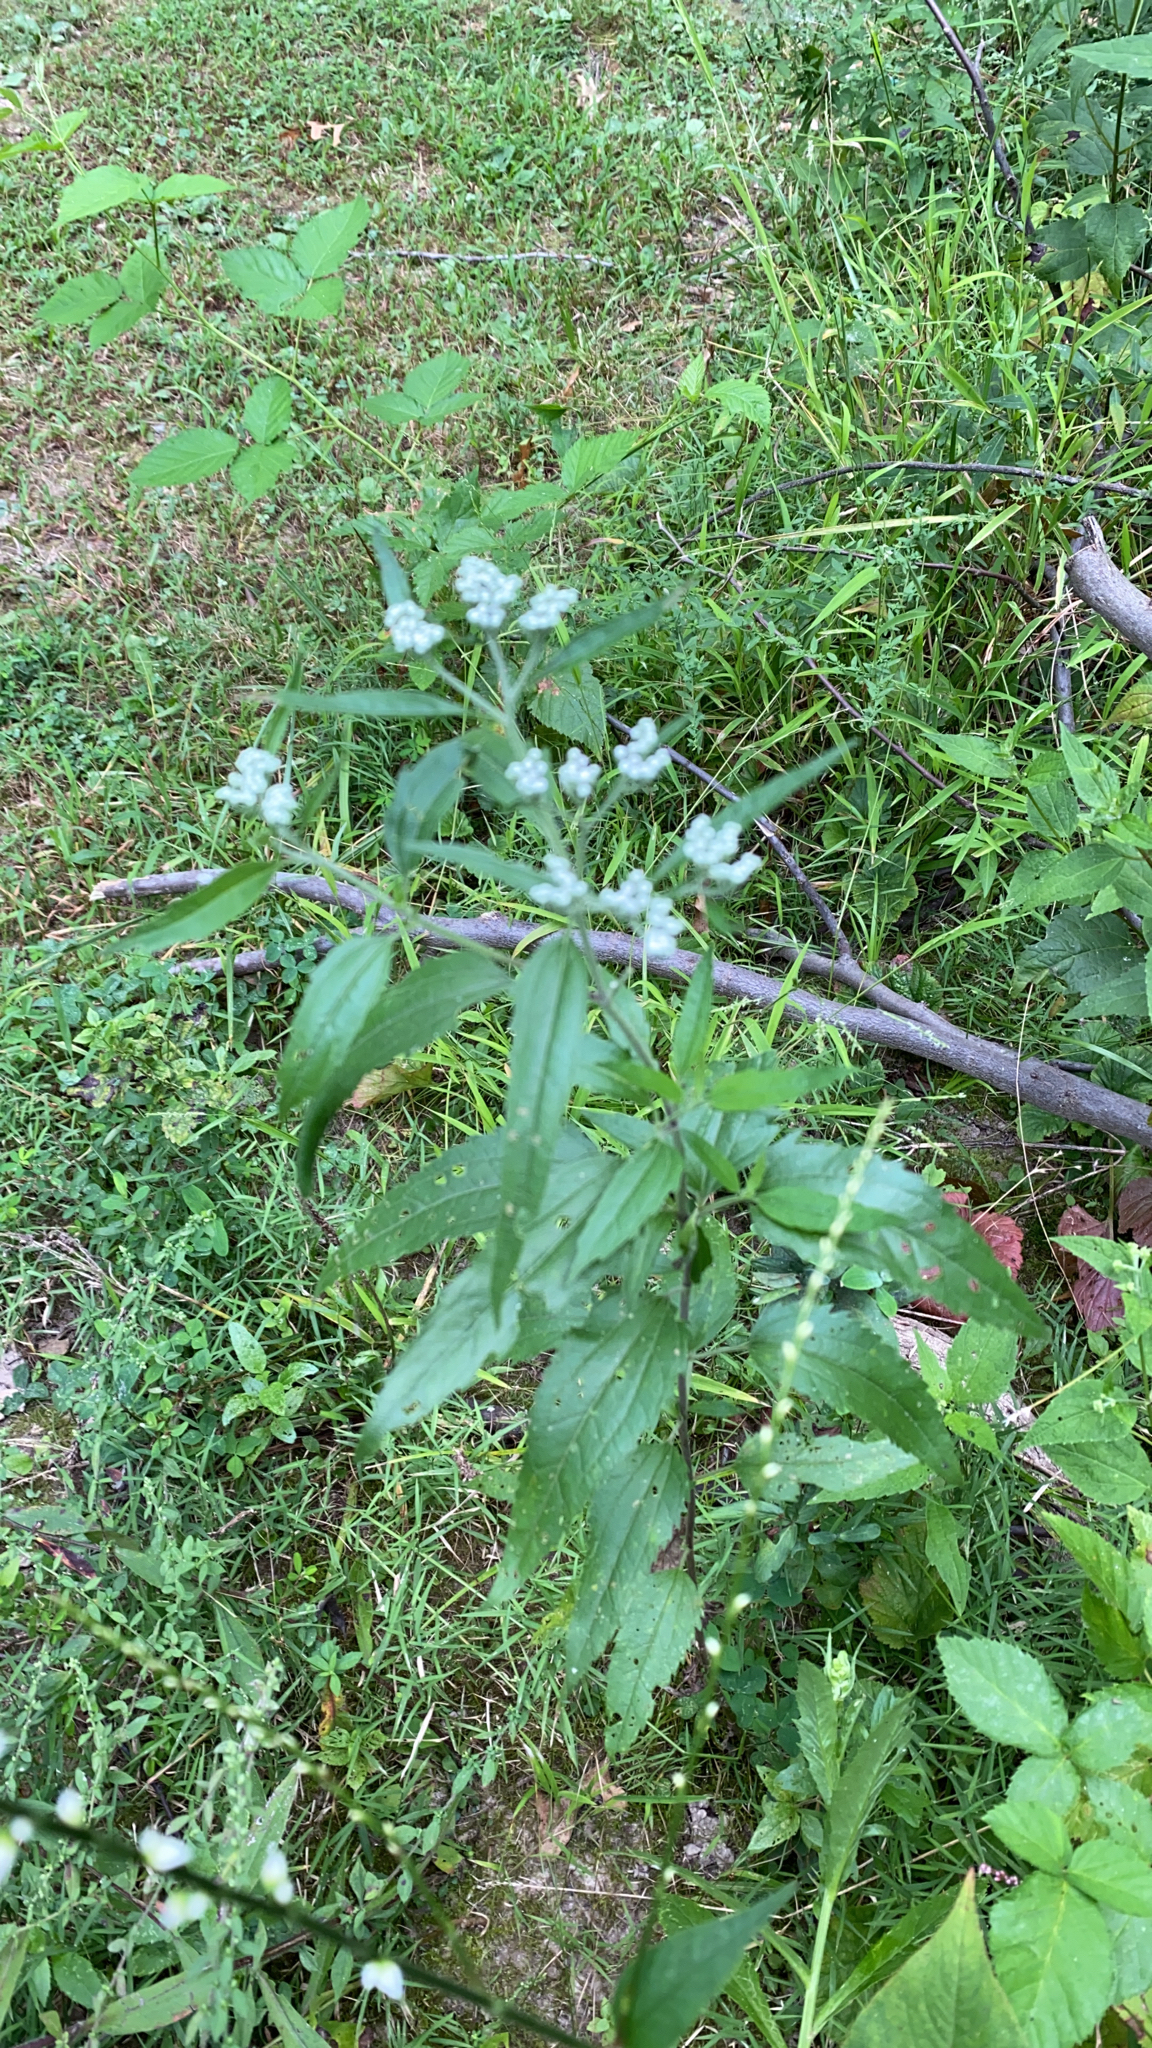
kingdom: Plantae
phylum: Tracheophyta
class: Magnoliopsida
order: Asterales
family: Asteraceae
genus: Eupatorium
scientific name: Eupatorium serotinum
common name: Late boneset
